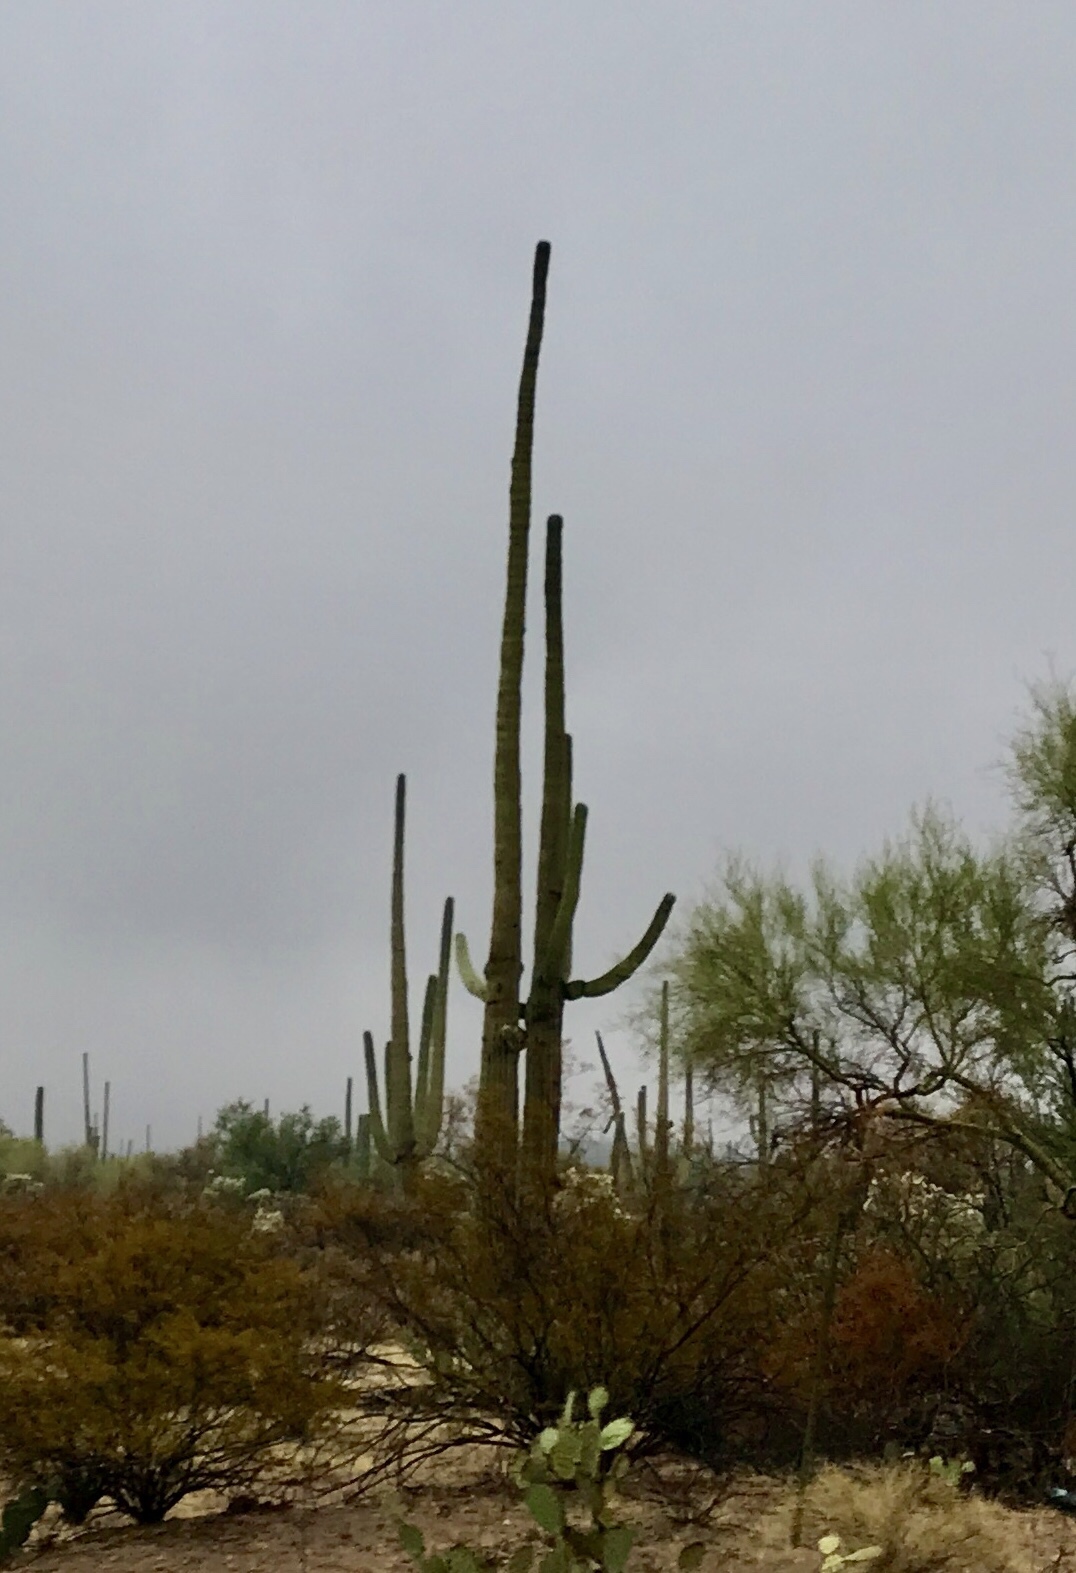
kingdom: Plantae
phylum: Tracheophyta
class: Magnoliopsida
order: Caryophyllales
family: Cactaceae
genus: Carnegiea
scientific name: Carnegiea gigantea
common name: Saguaro
